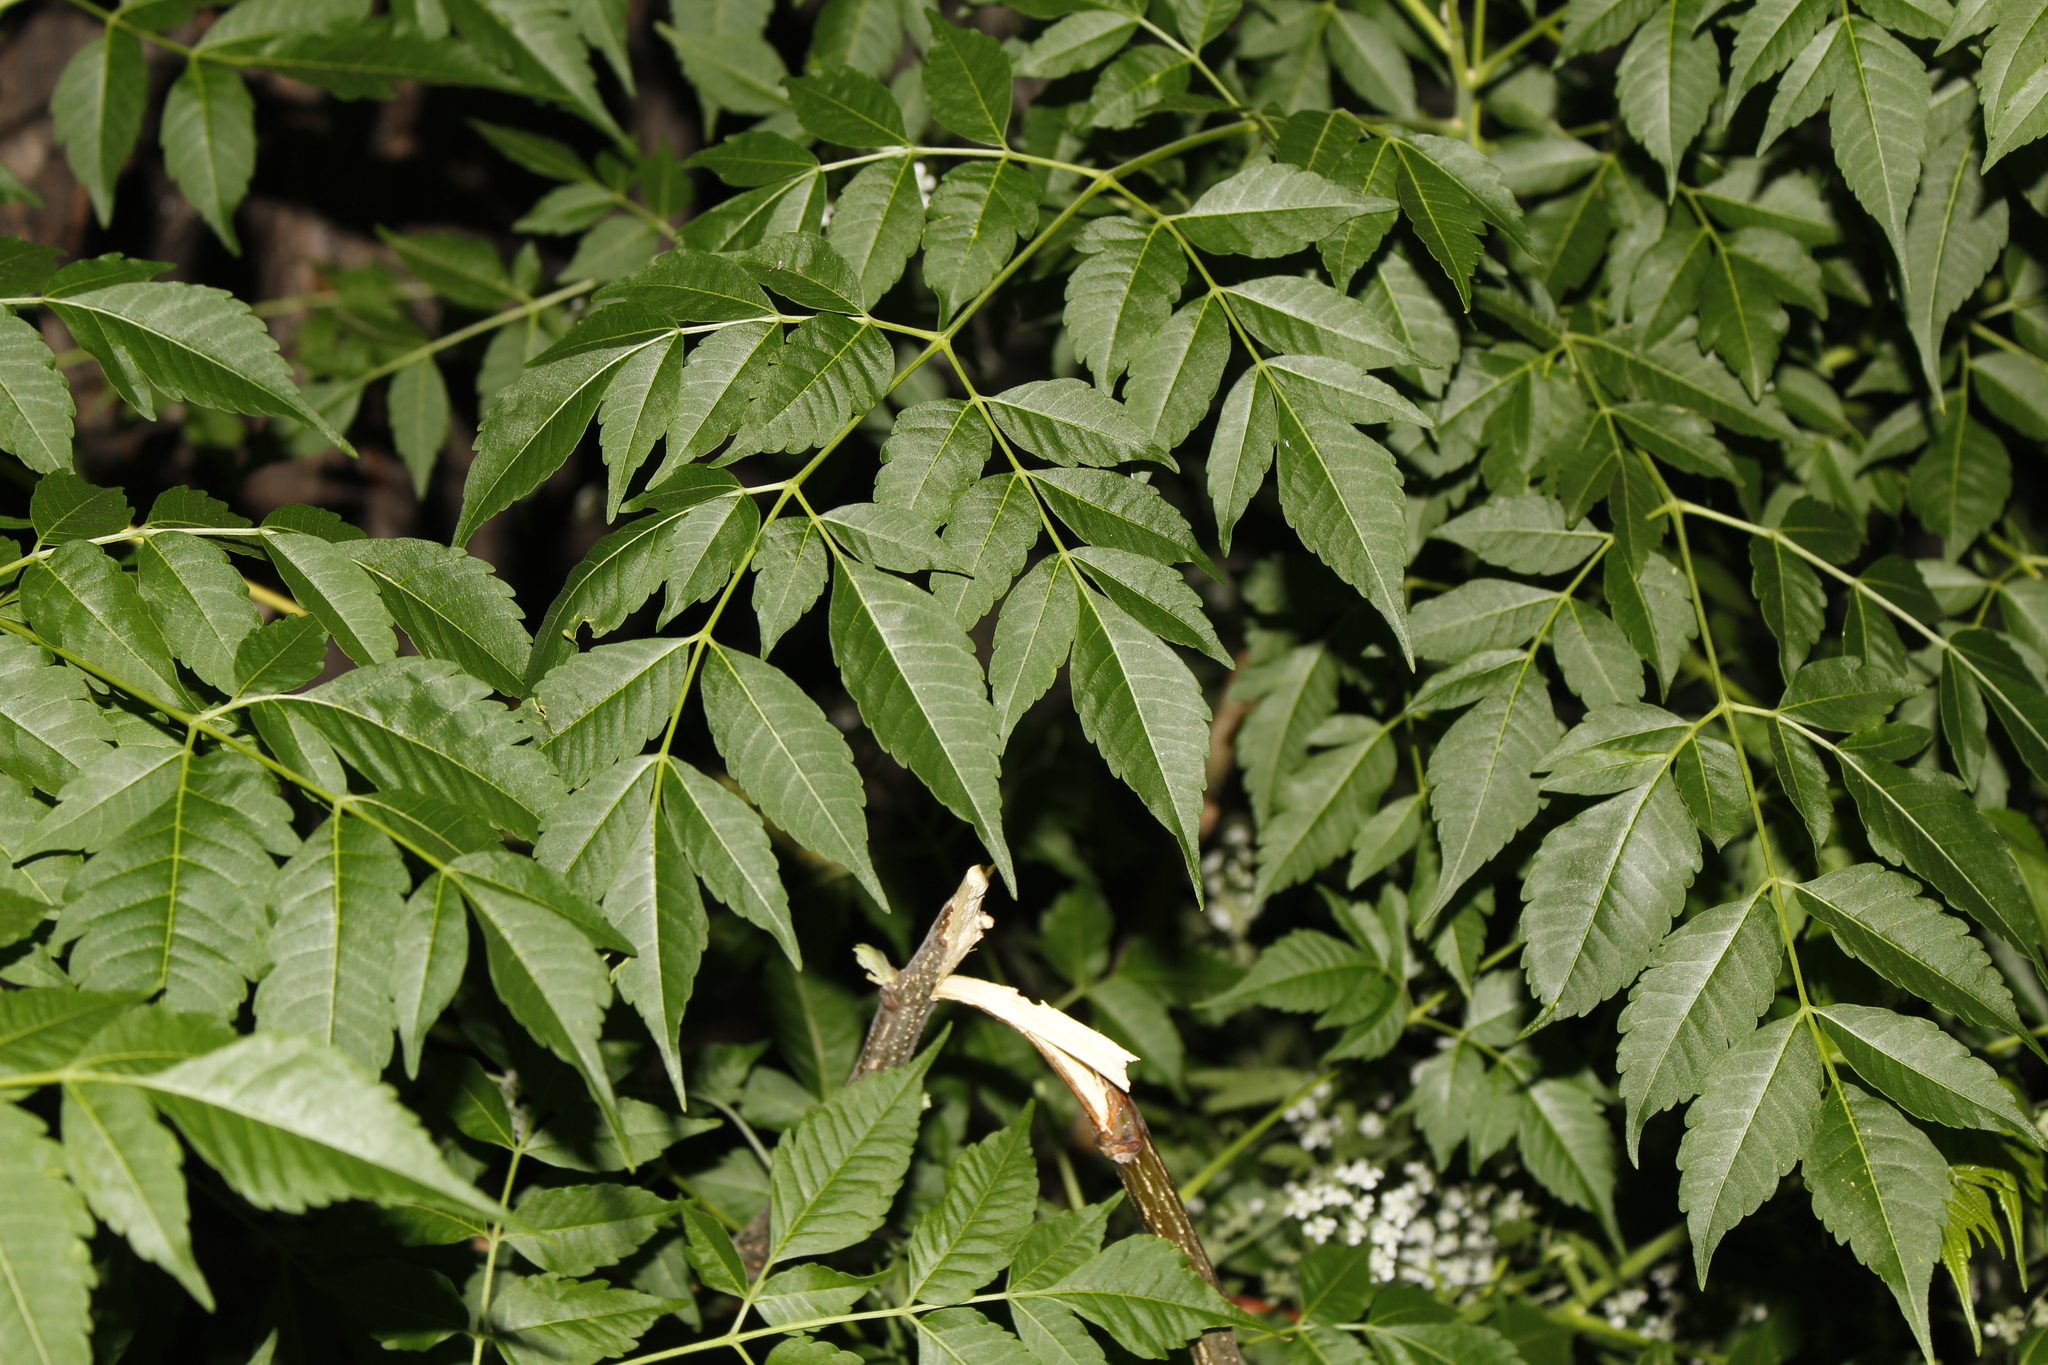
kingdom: Plantae
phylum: Tracheophyta
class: Magnoliopsida
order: Sapindales
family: Meliaceae
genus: Melia
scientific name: Melia azedarach
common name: Chinaberrytree
